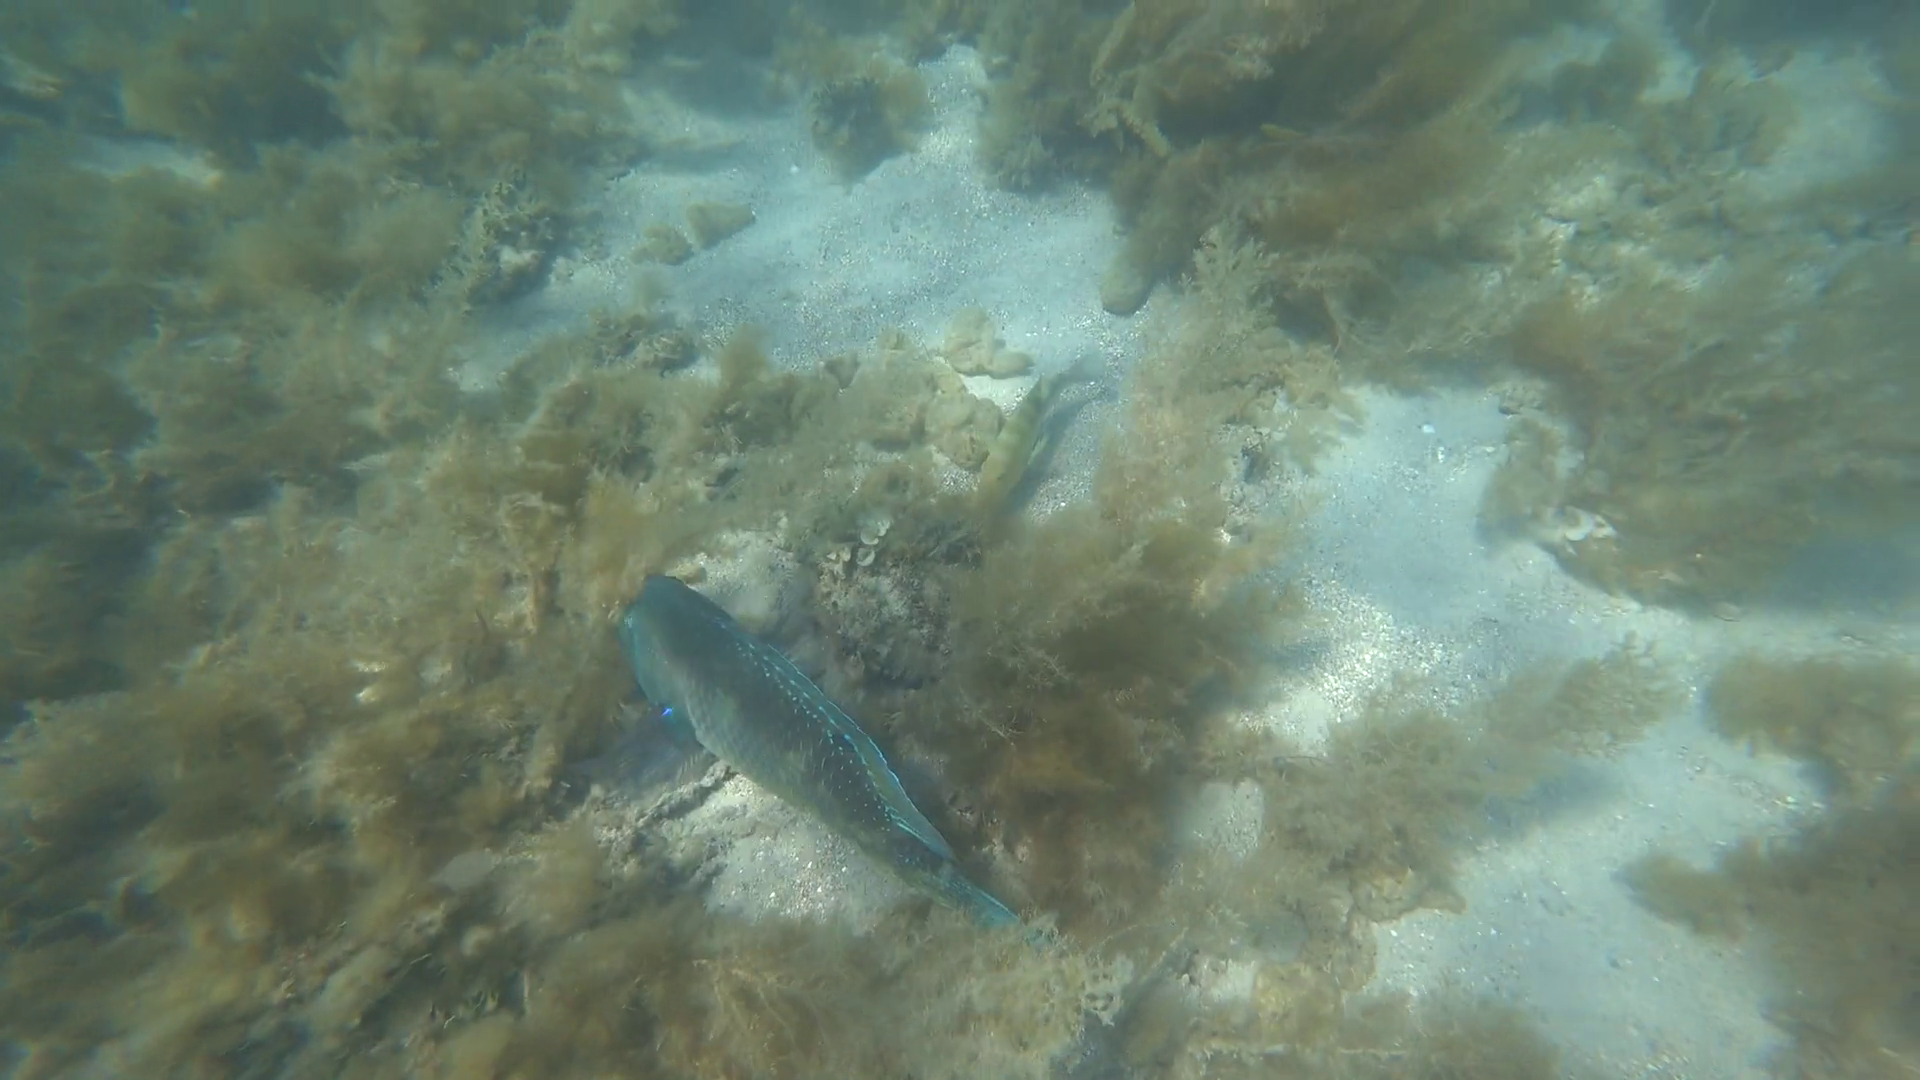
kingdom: Animalia
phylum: Chordata
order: Perciformes
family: Labridae
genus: Choerodon
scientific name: Choerodon schoenleinii
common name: Blackspot tuskfish
